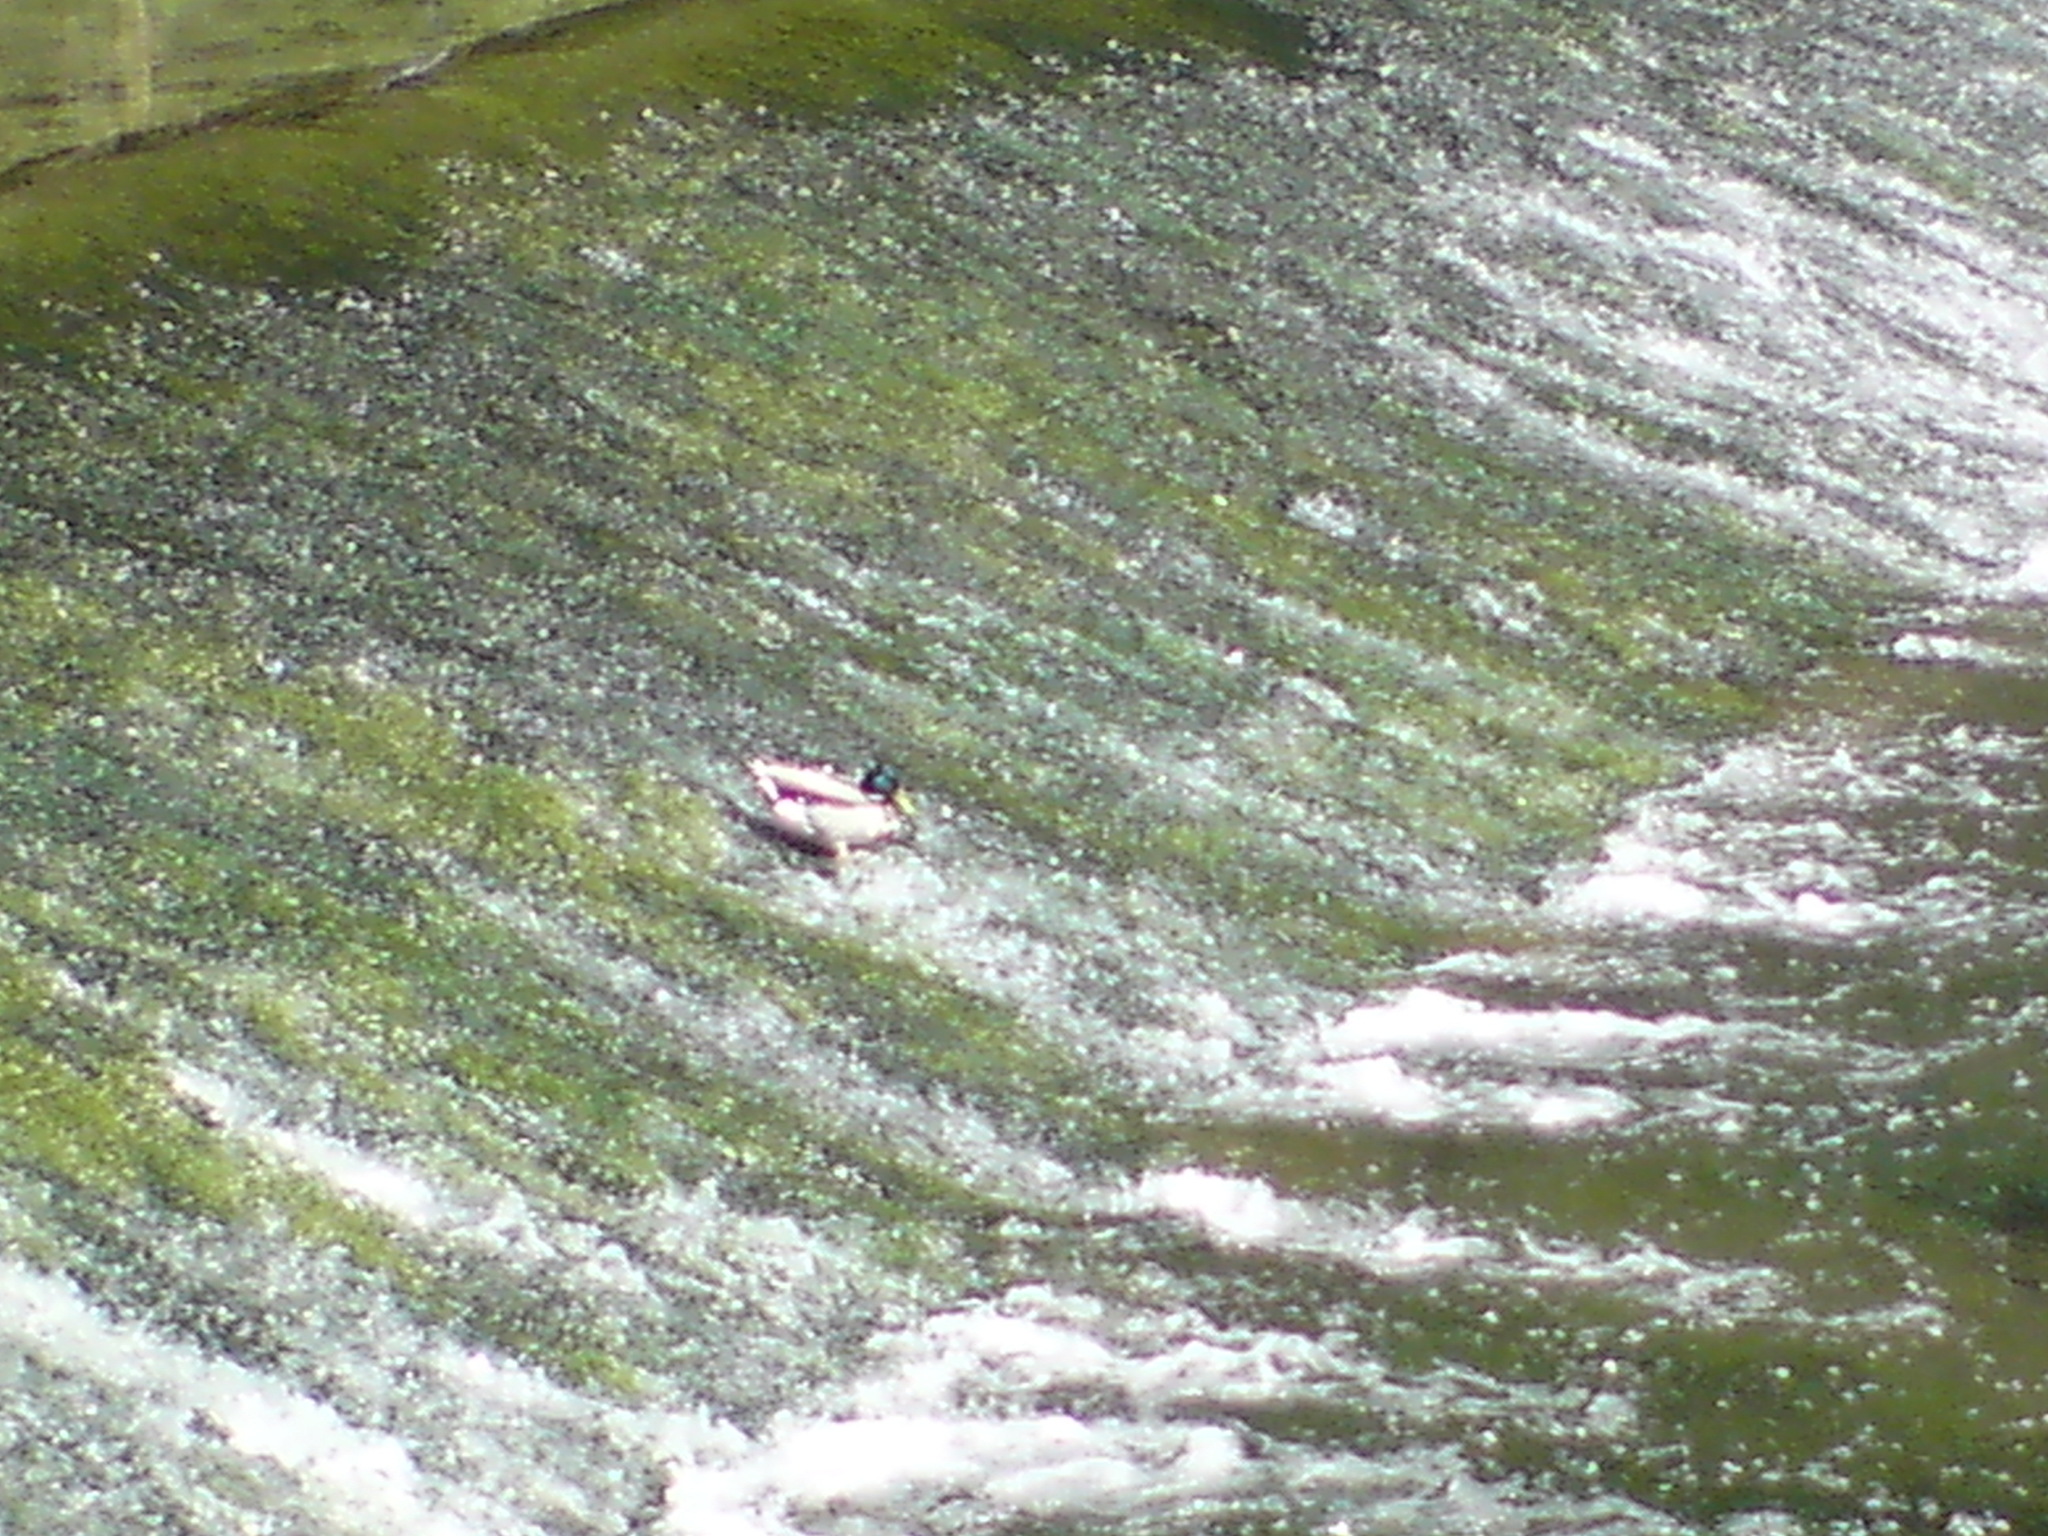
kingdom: Animalia
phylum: Chordata
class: Aves
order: Anseriformes
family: Anatidae
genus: Anas
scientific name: Anas platyrhynchos
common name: Mallard
